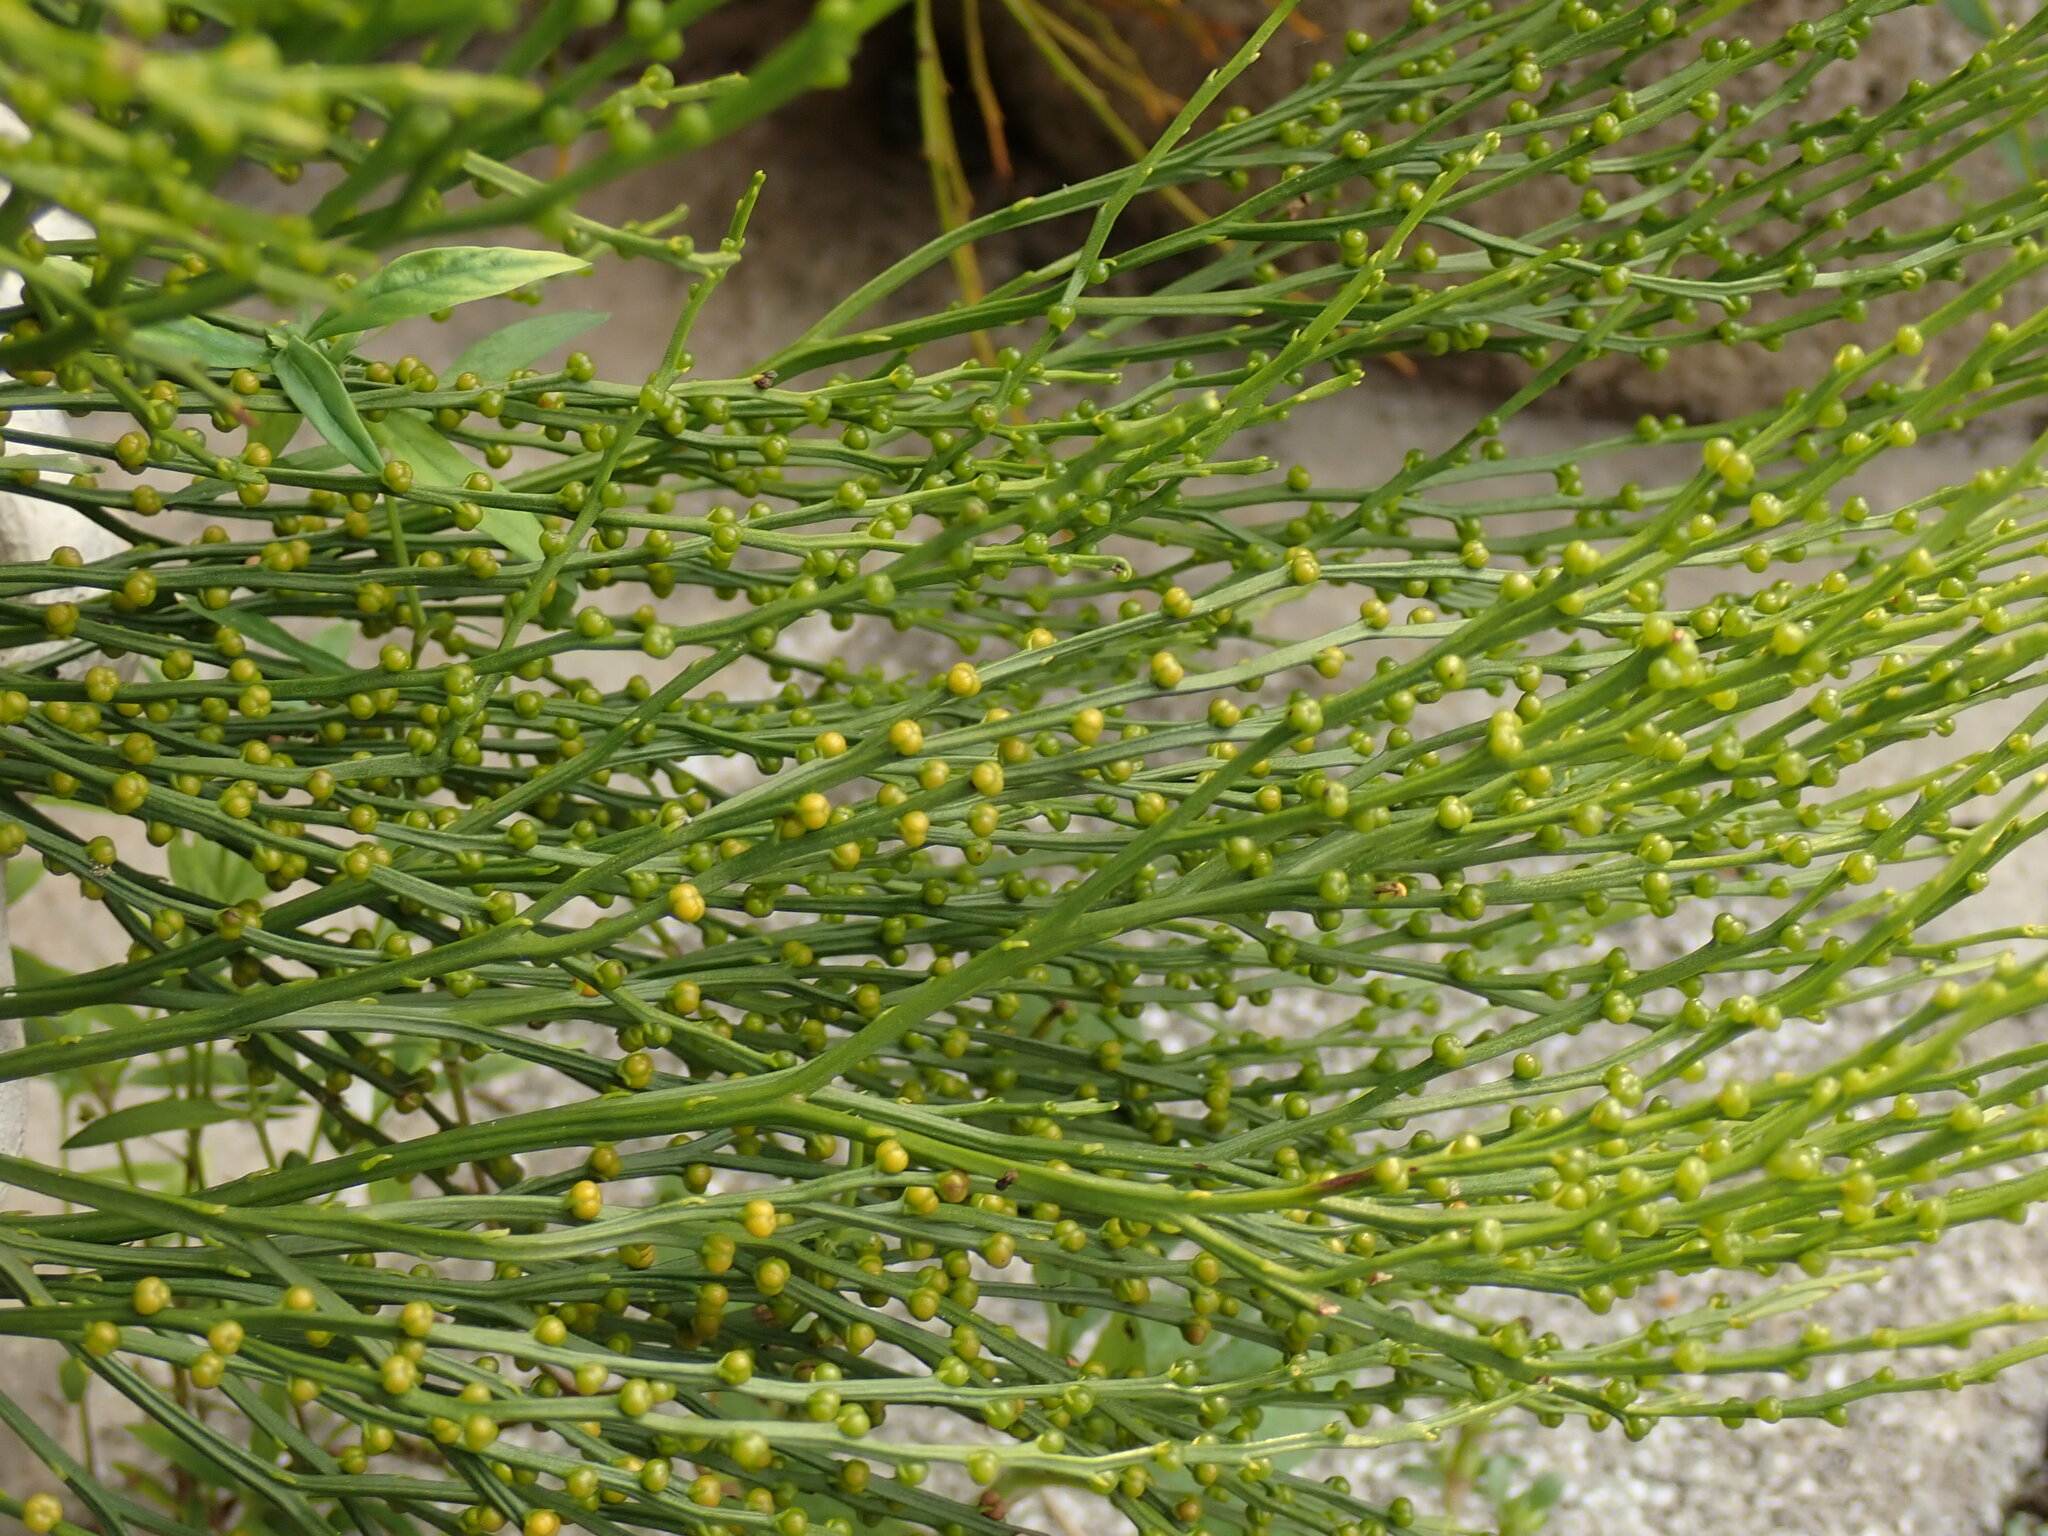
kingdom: Plantae
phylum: Tracheophyta
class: Polypodiopsida
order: Psilotales
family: Psilotaceae
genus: Psilotum
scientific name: Psilotum nudum
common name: Skeleton fork fern
